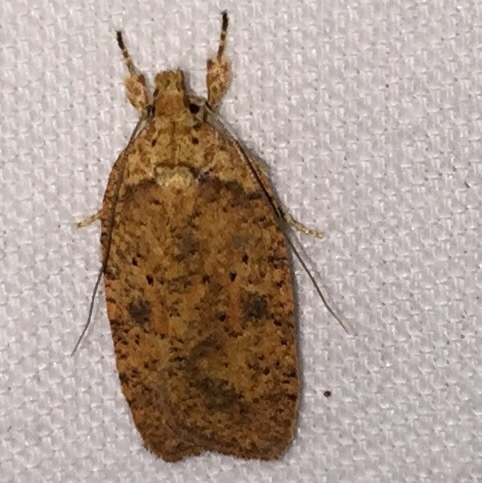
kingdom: Animalia
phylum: Arthropoda
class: Insecta
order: Lepidoptera
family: Depressariidae
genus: Agonopterix
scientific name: Agonopterix thelmae
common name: Thelma's agonopterix moth
